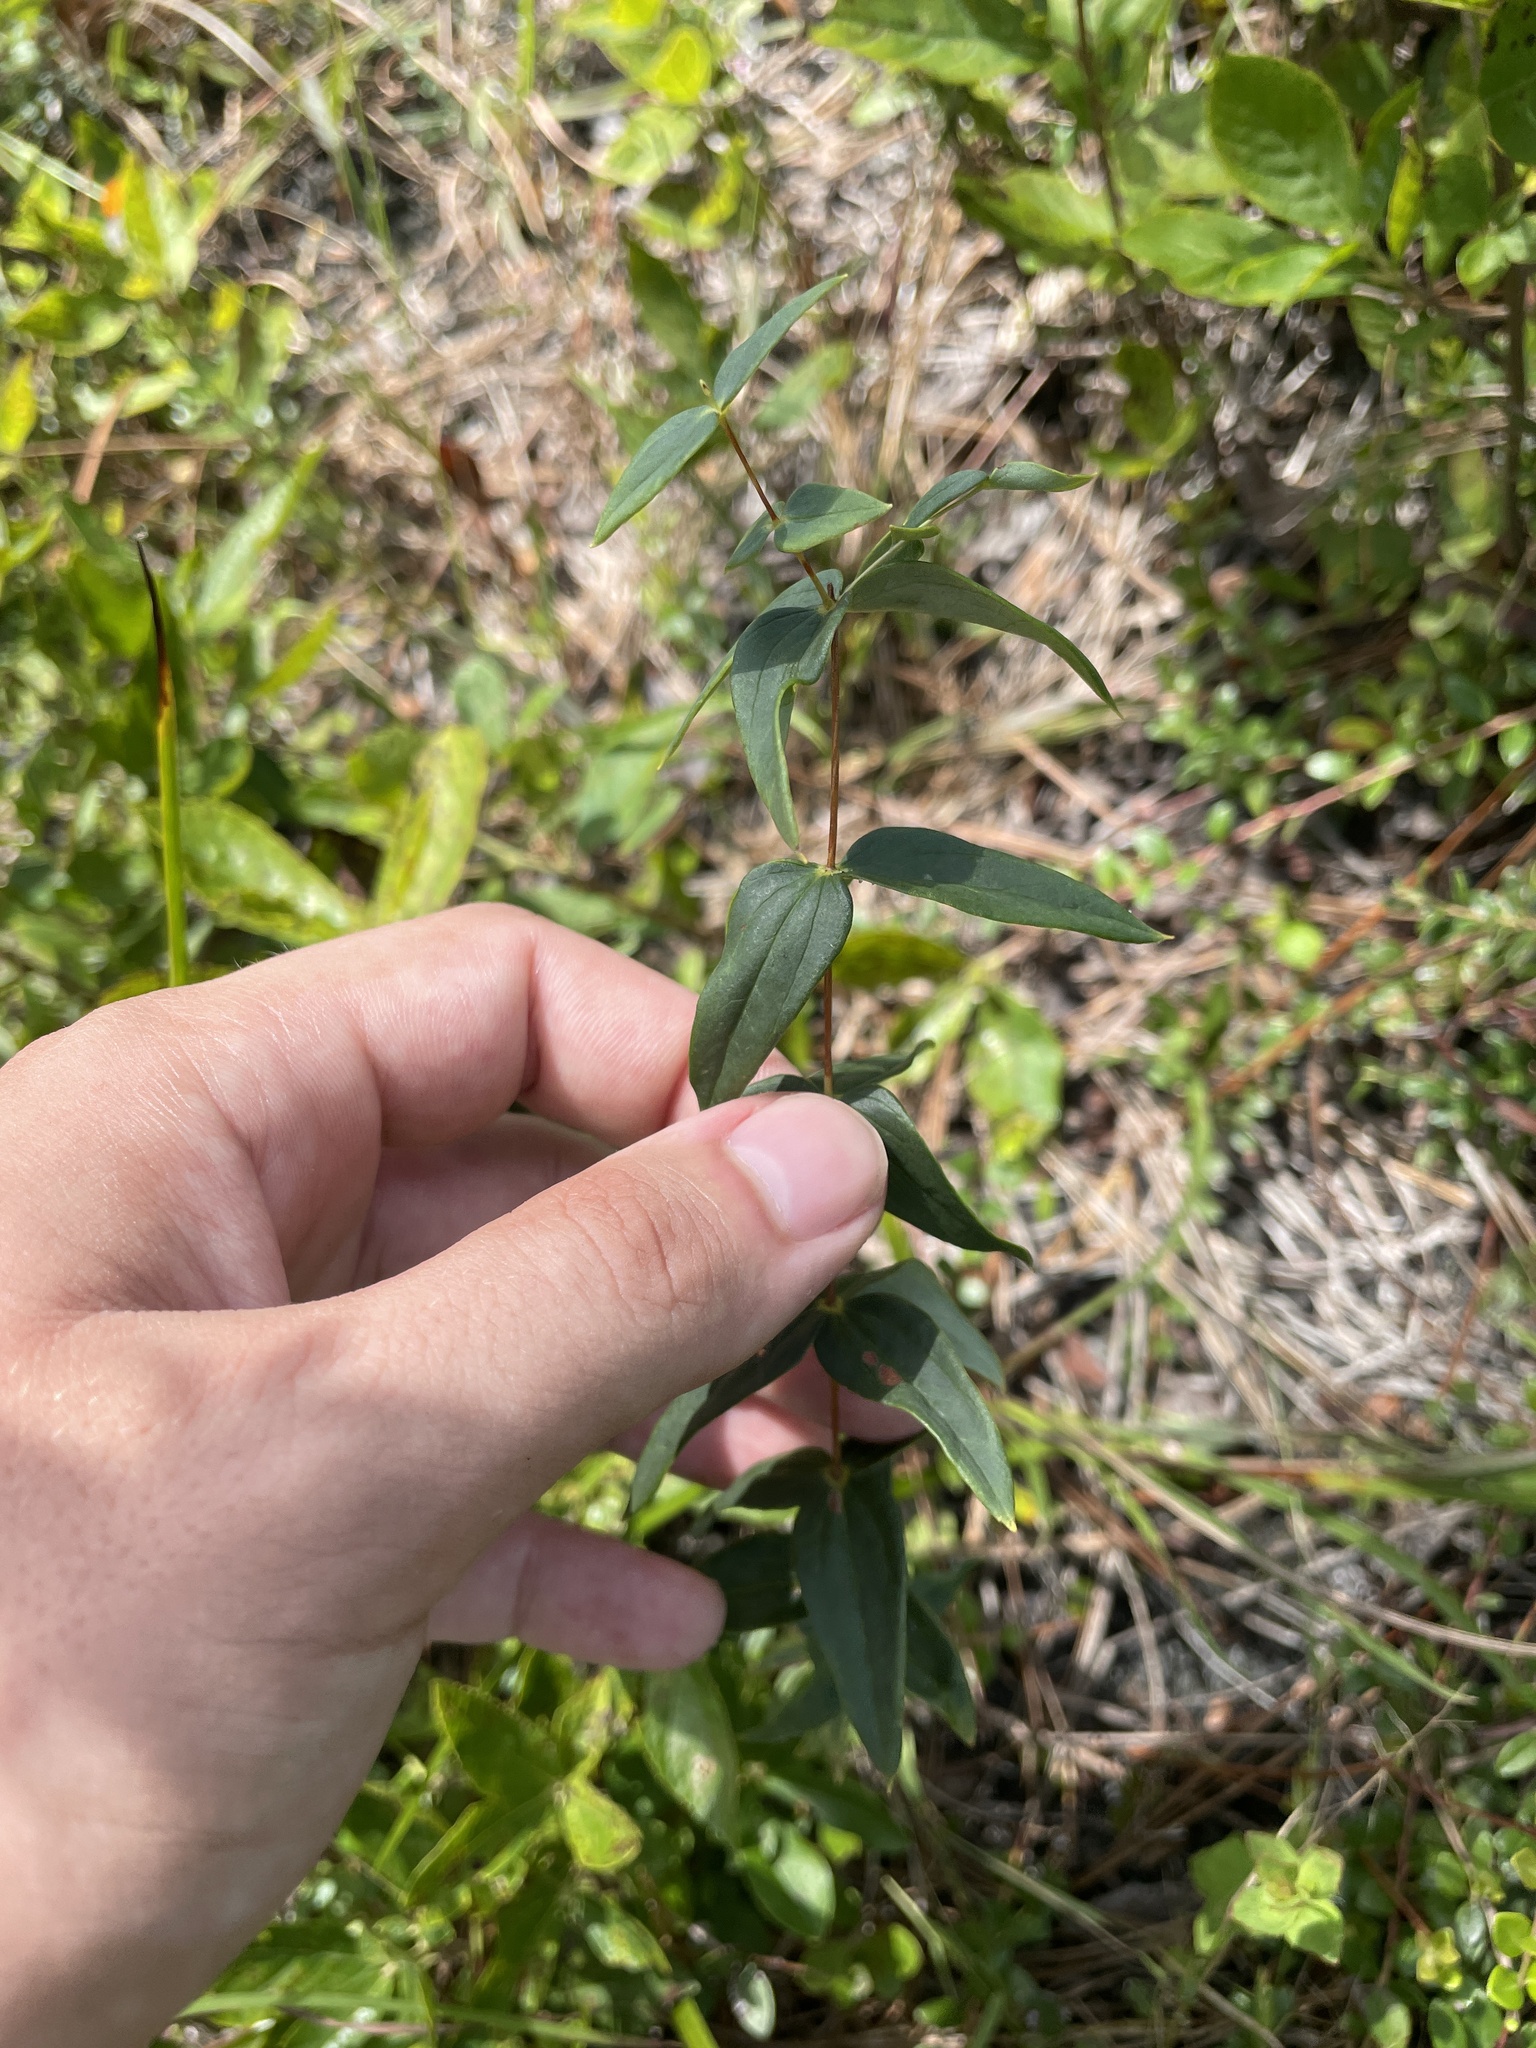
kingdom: Plantae
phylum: Tracheophyta
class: Magnoliopsida
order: Ericales
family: Primulaceae
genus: Lysimachia
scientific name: Lysimachia asperulifolia
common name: Rough-leaf loosestrife
